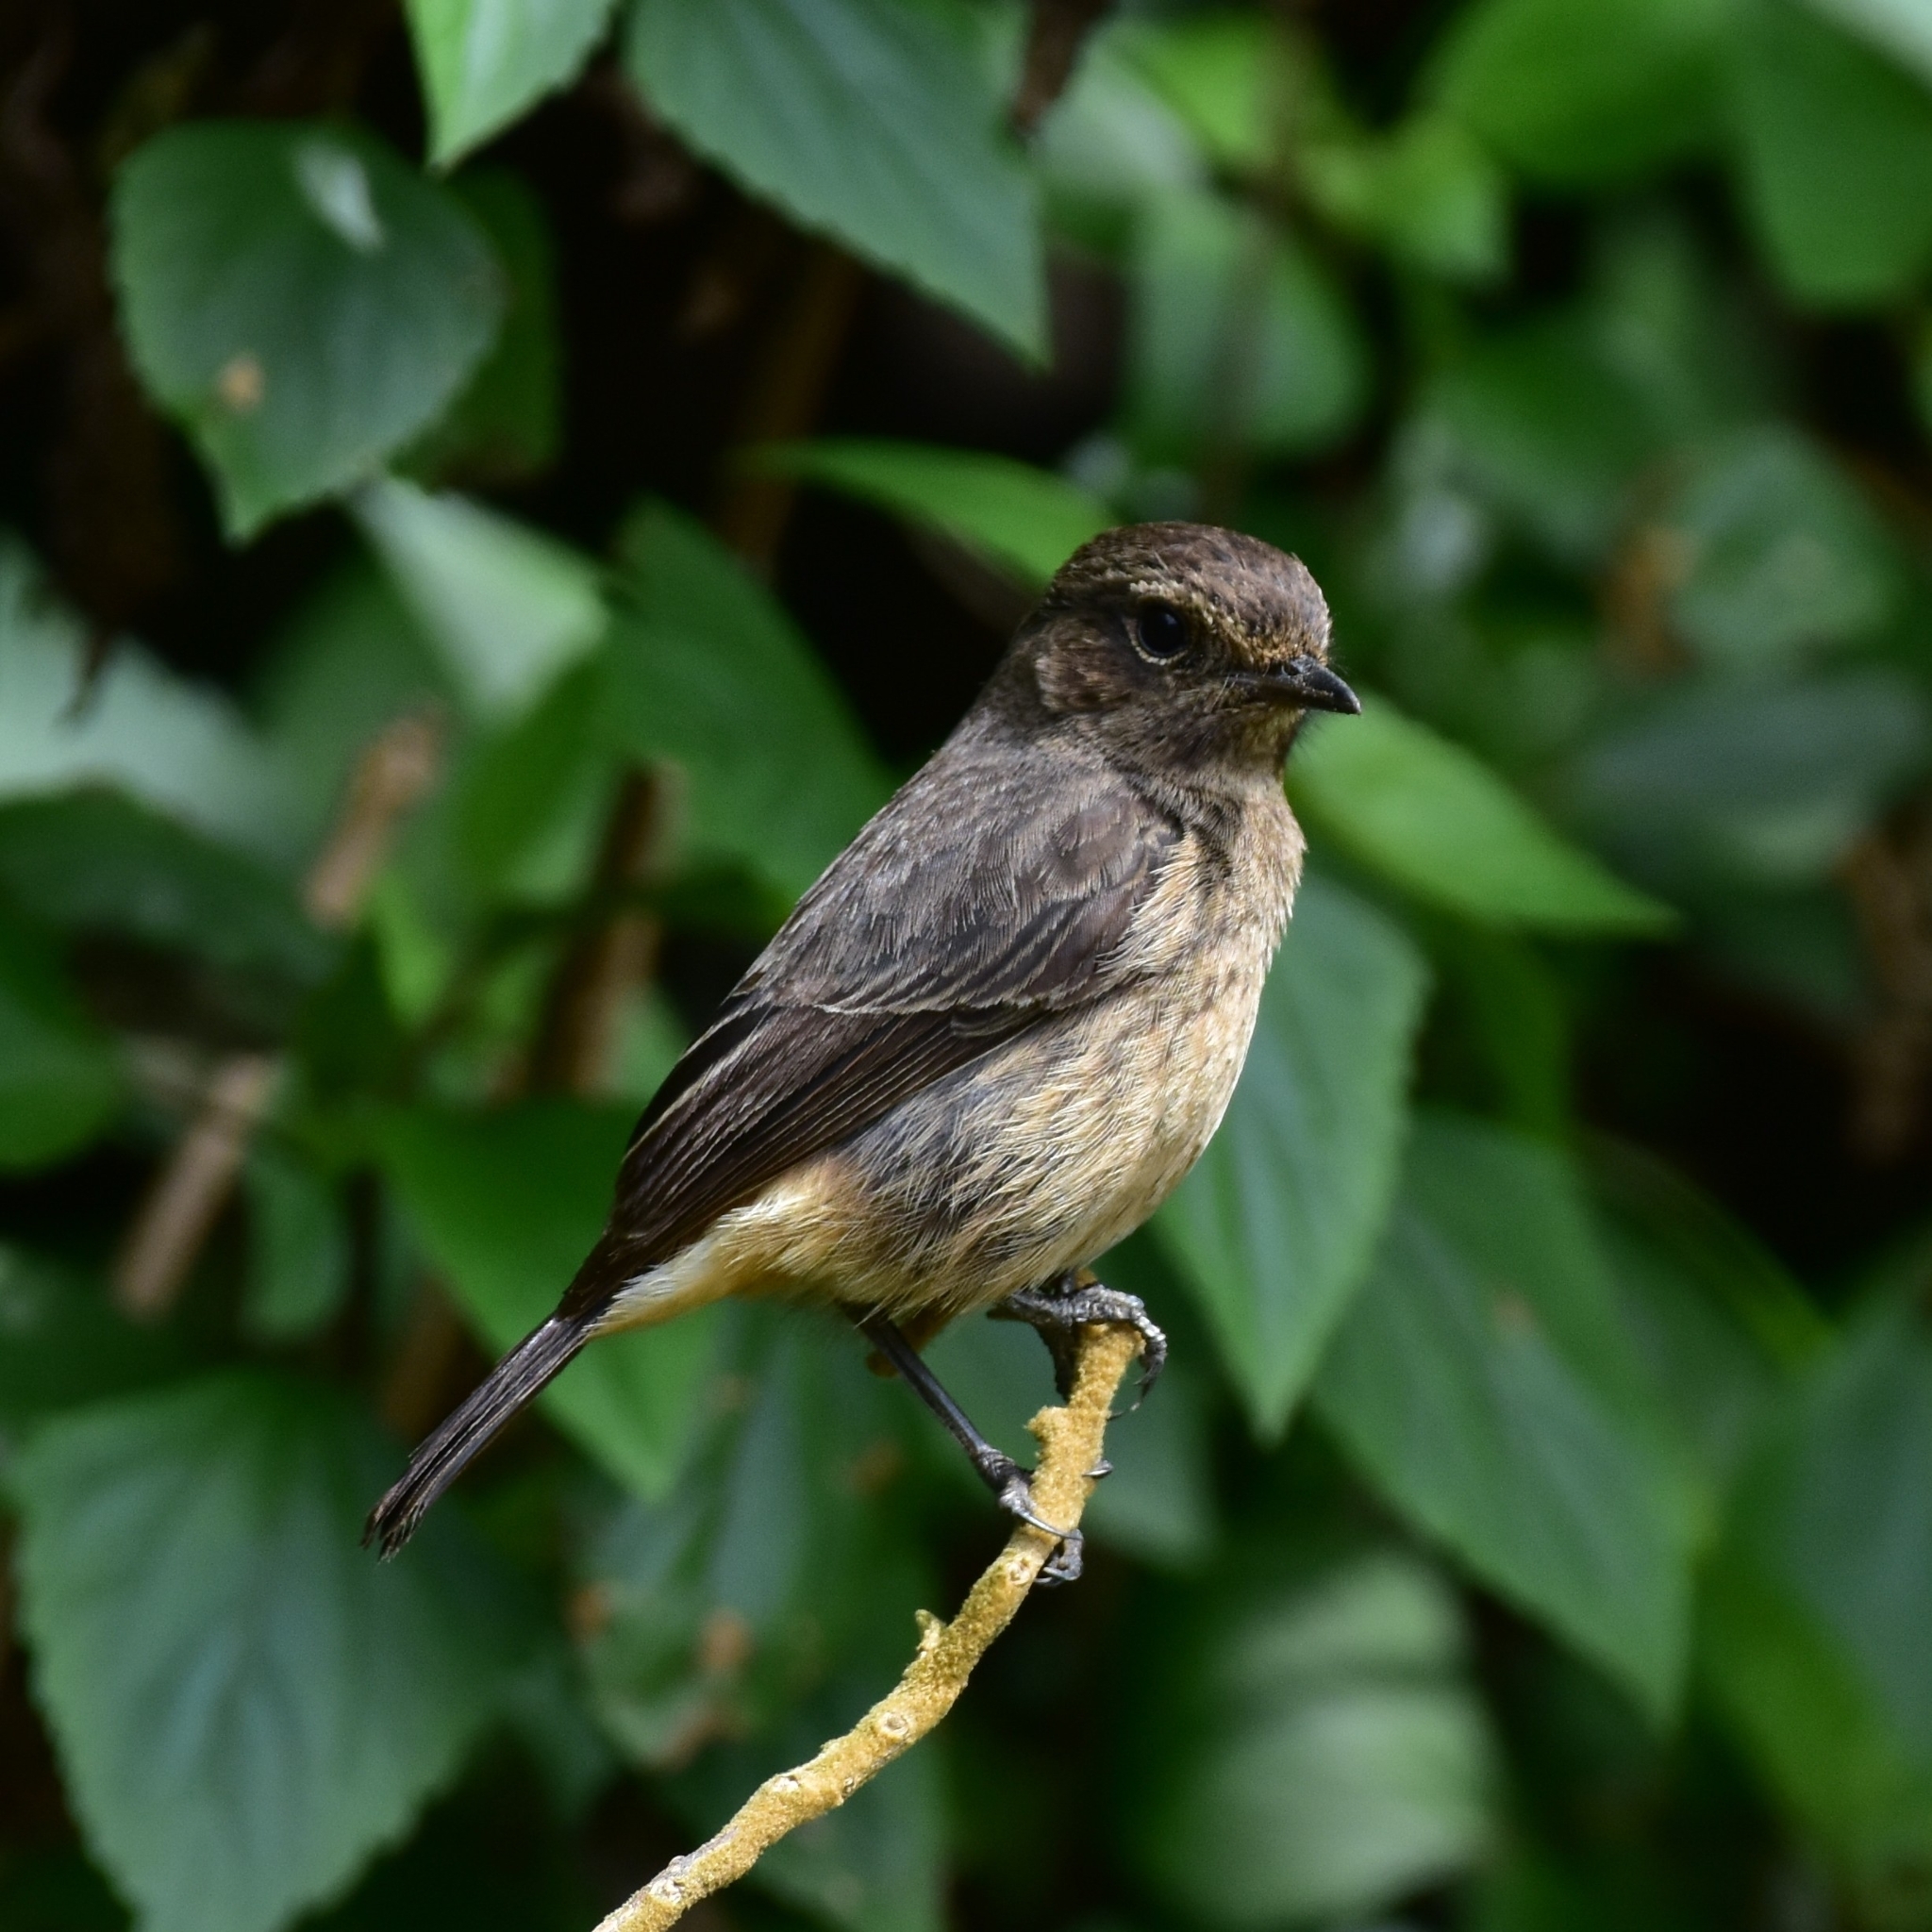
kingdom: Animalia
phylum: Chordata
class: Aves
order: Passeriformes
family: Muscicapidae
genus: Saxicola
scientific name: Saxicola caprata
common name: Pied bush chat
